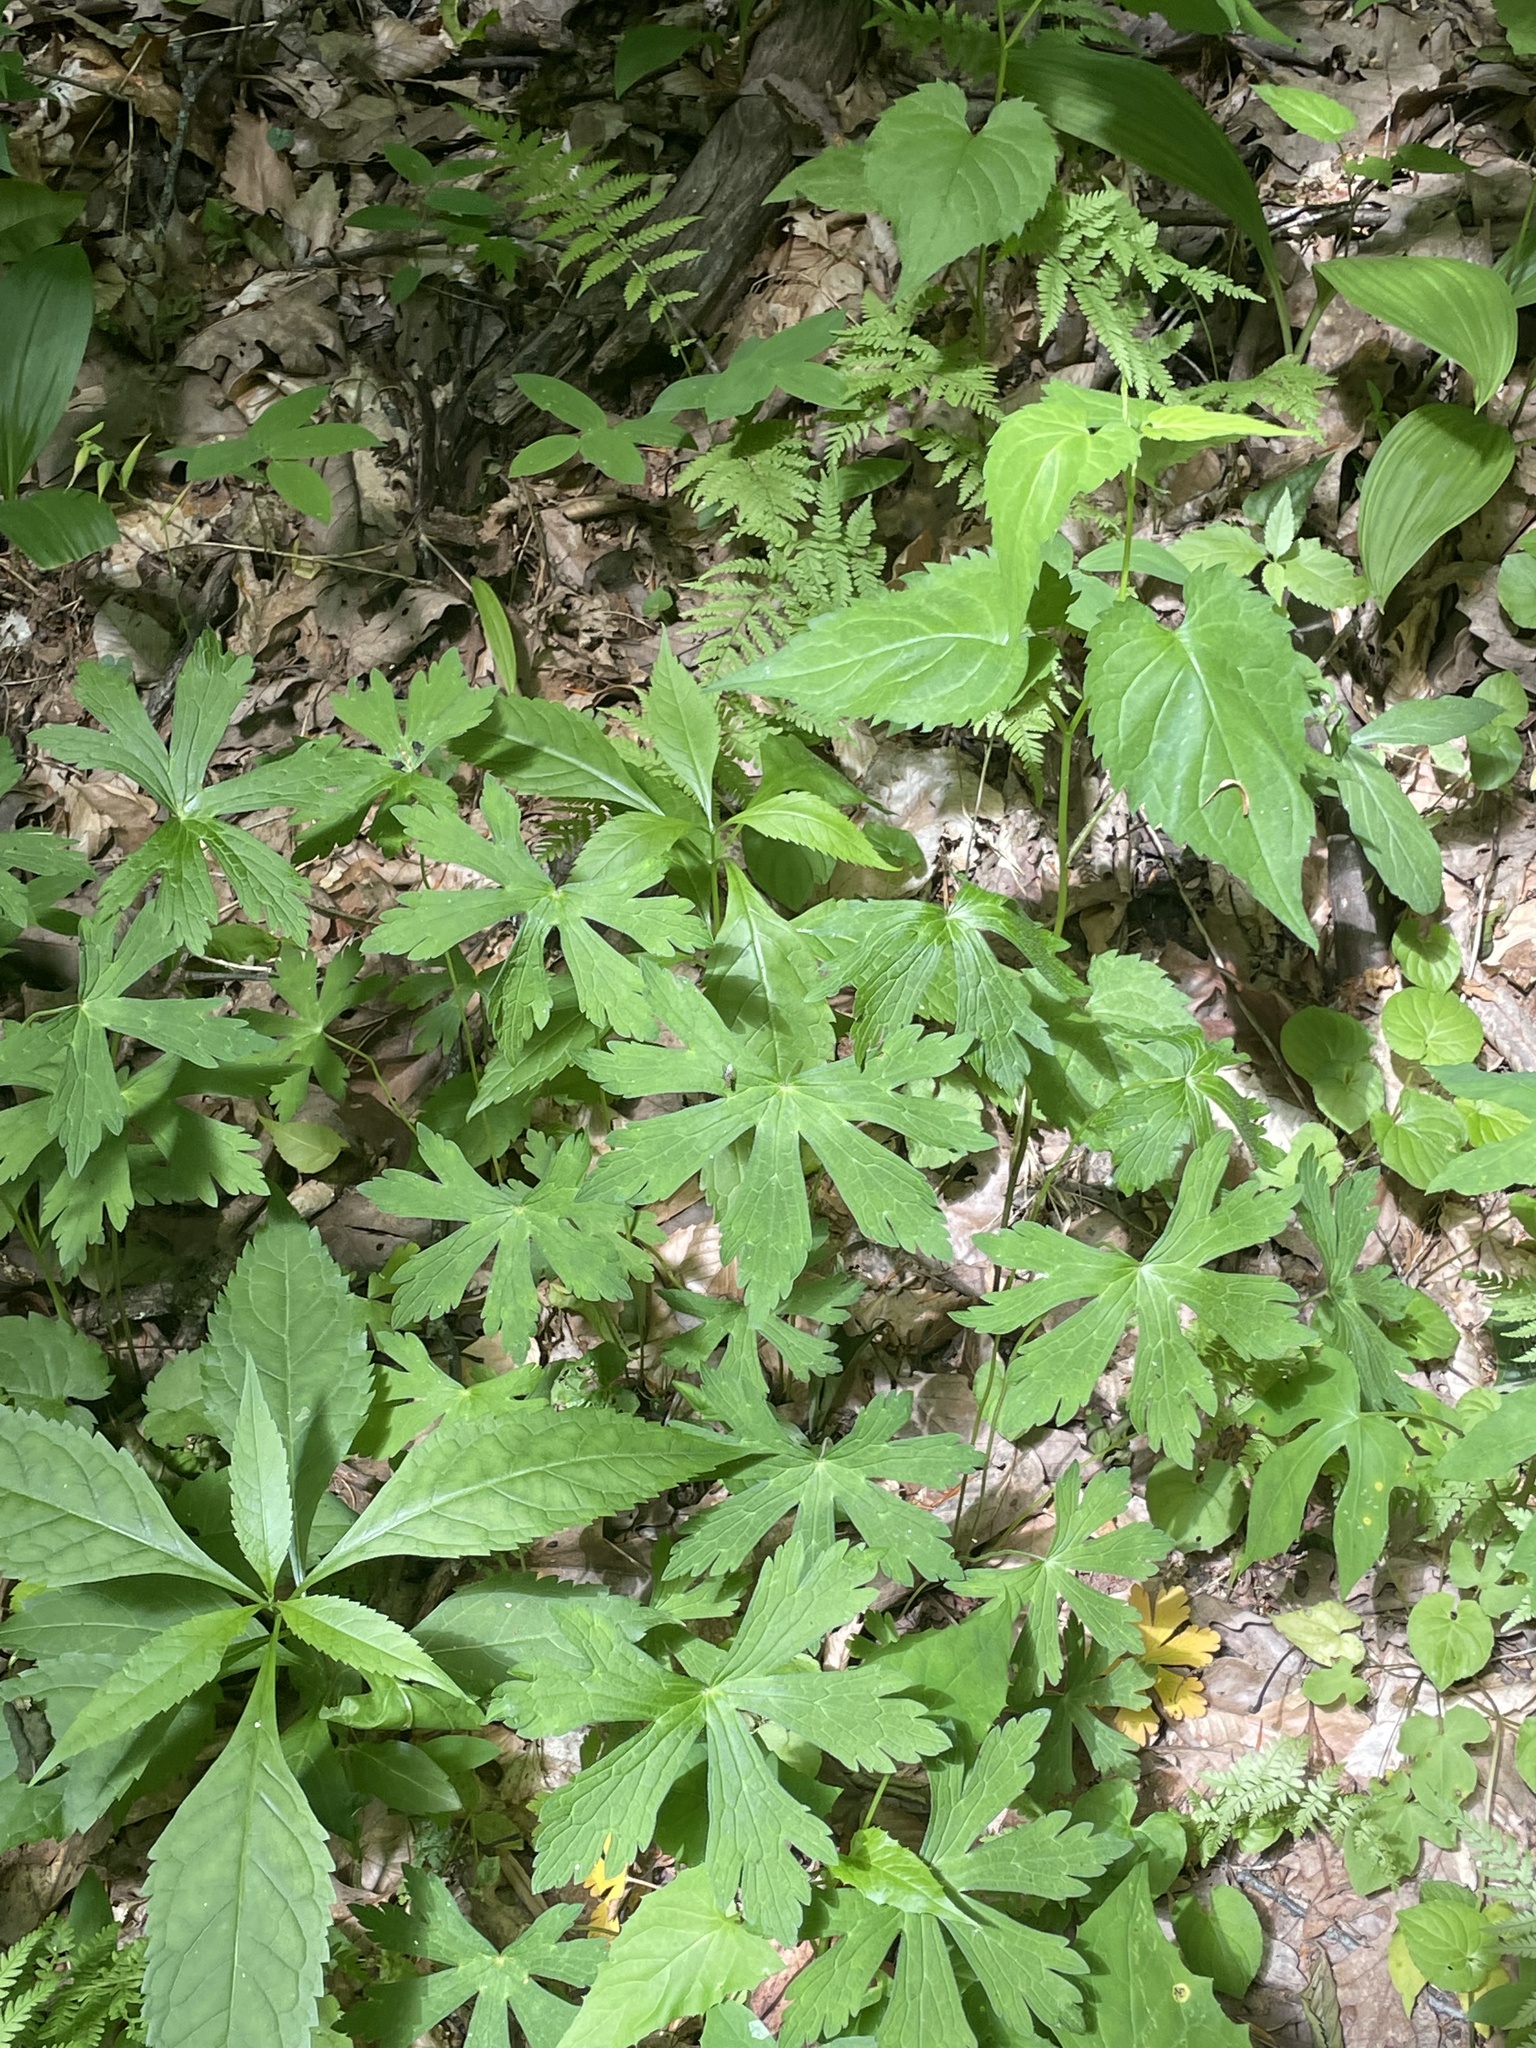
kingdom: Plantae
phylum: Tracheophyta
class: Magnoliopsida
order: Geraniales
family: Geraniaceae
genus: Geranium
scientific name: Geranium maculatum
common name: Spotted geranium
